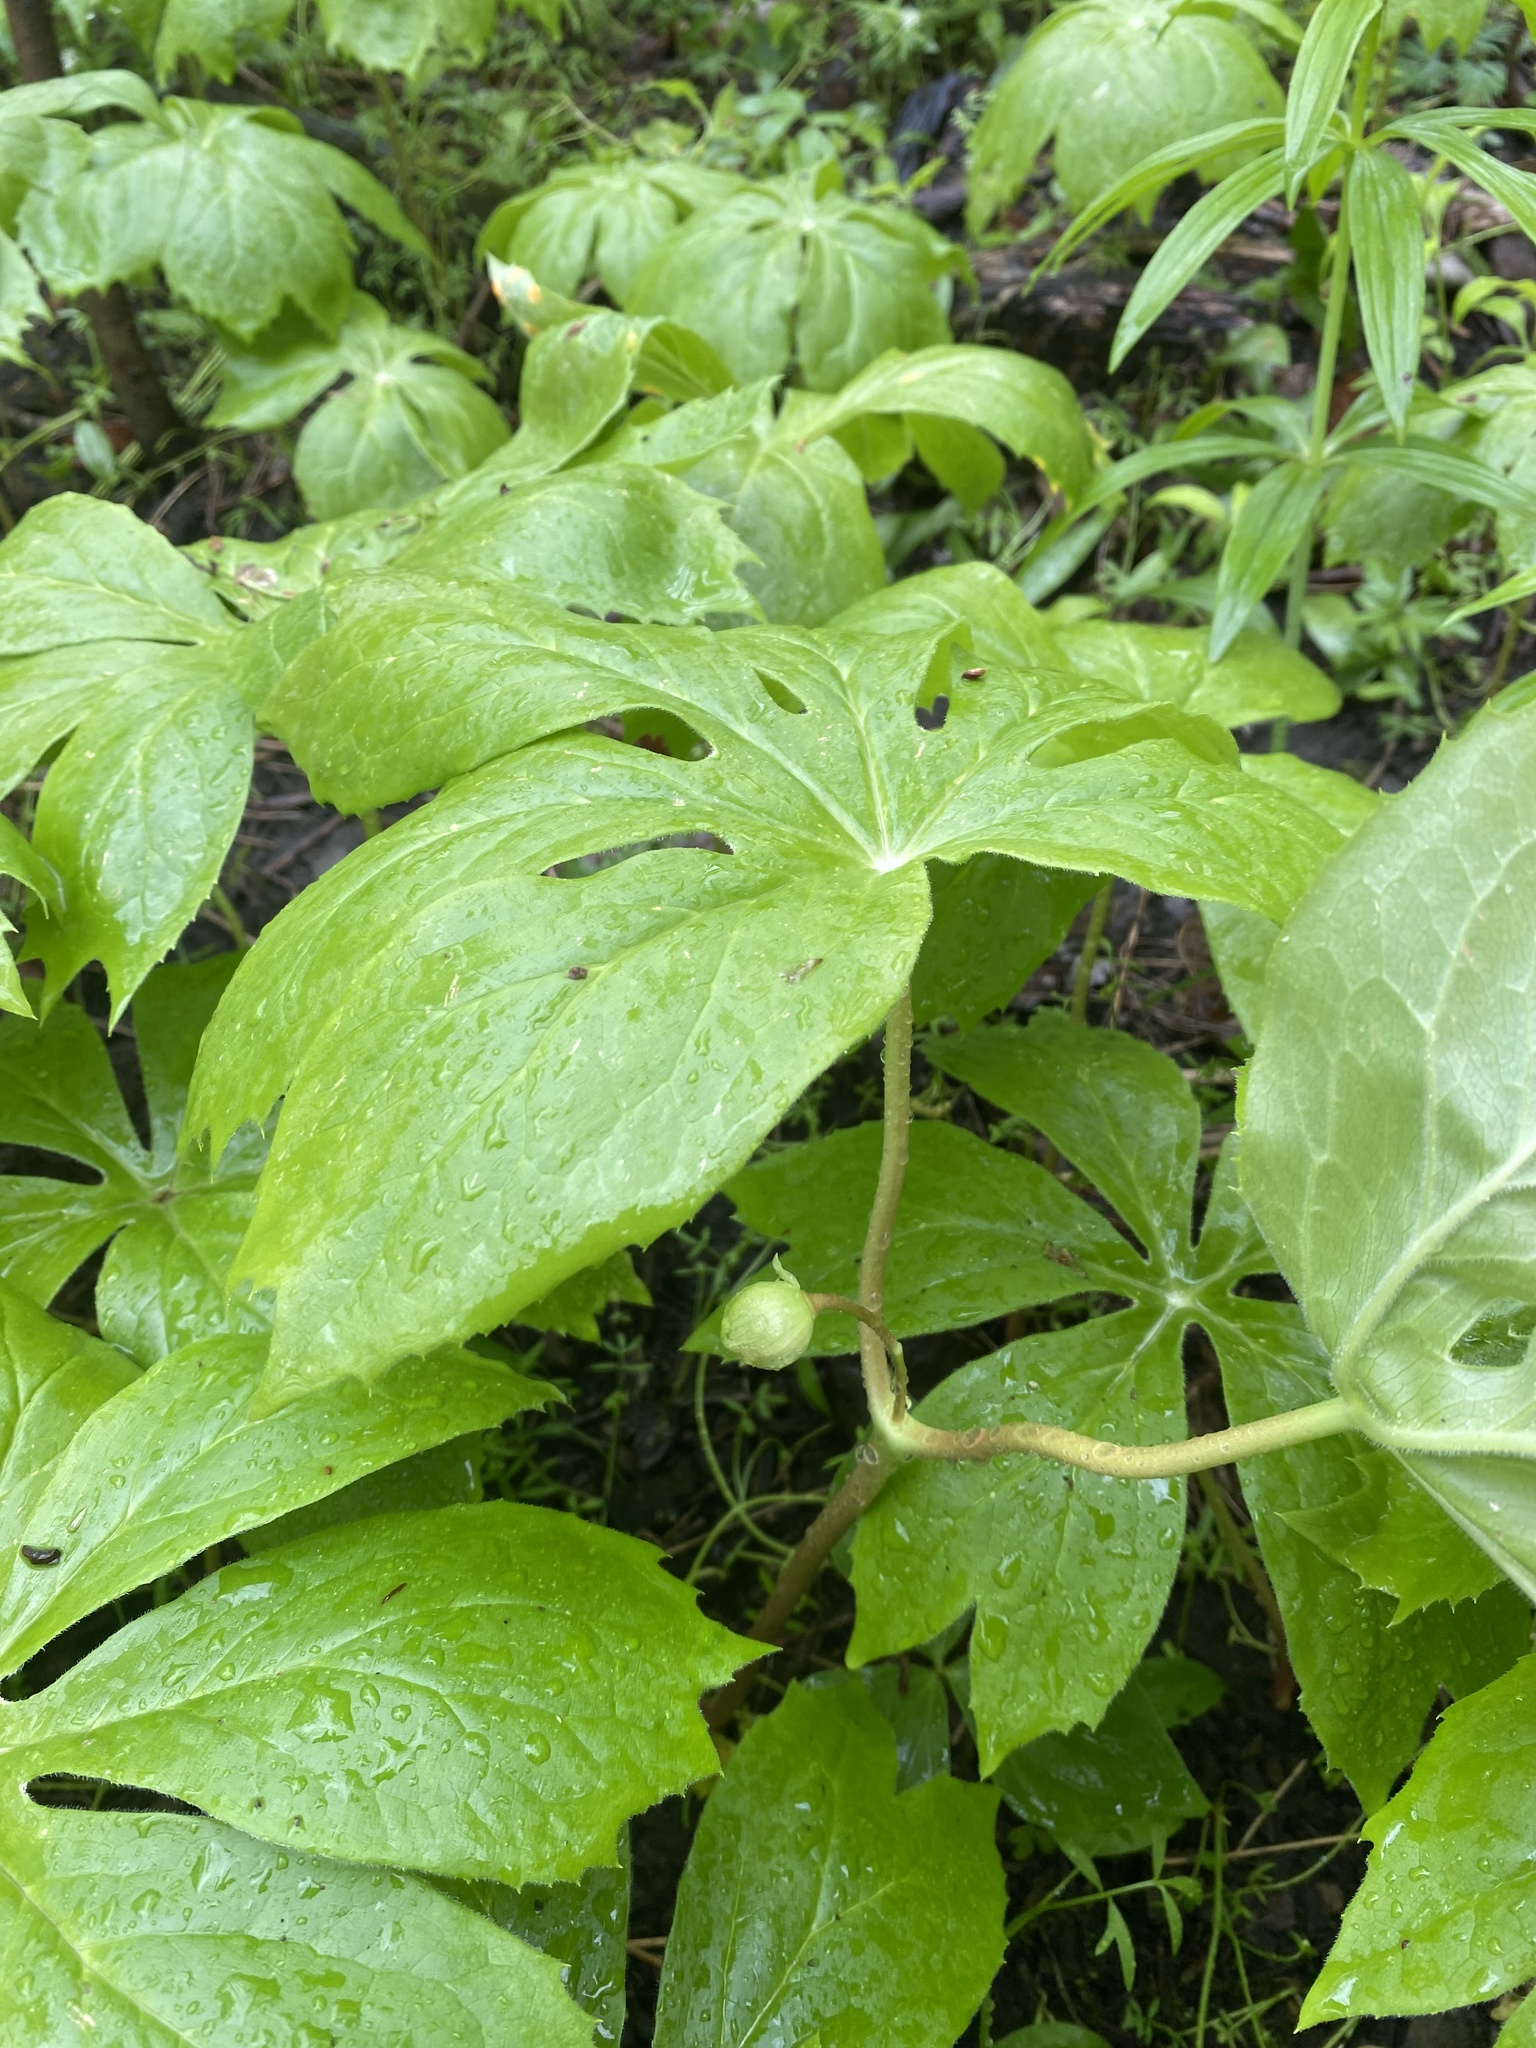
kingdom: Plantae
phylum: Tracheophyta
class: Magnoliopsida
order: Ranunculales
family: Berberidaceae
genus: Podophyllum
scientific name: Podophyllum peltatum
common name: Wild mandrake
